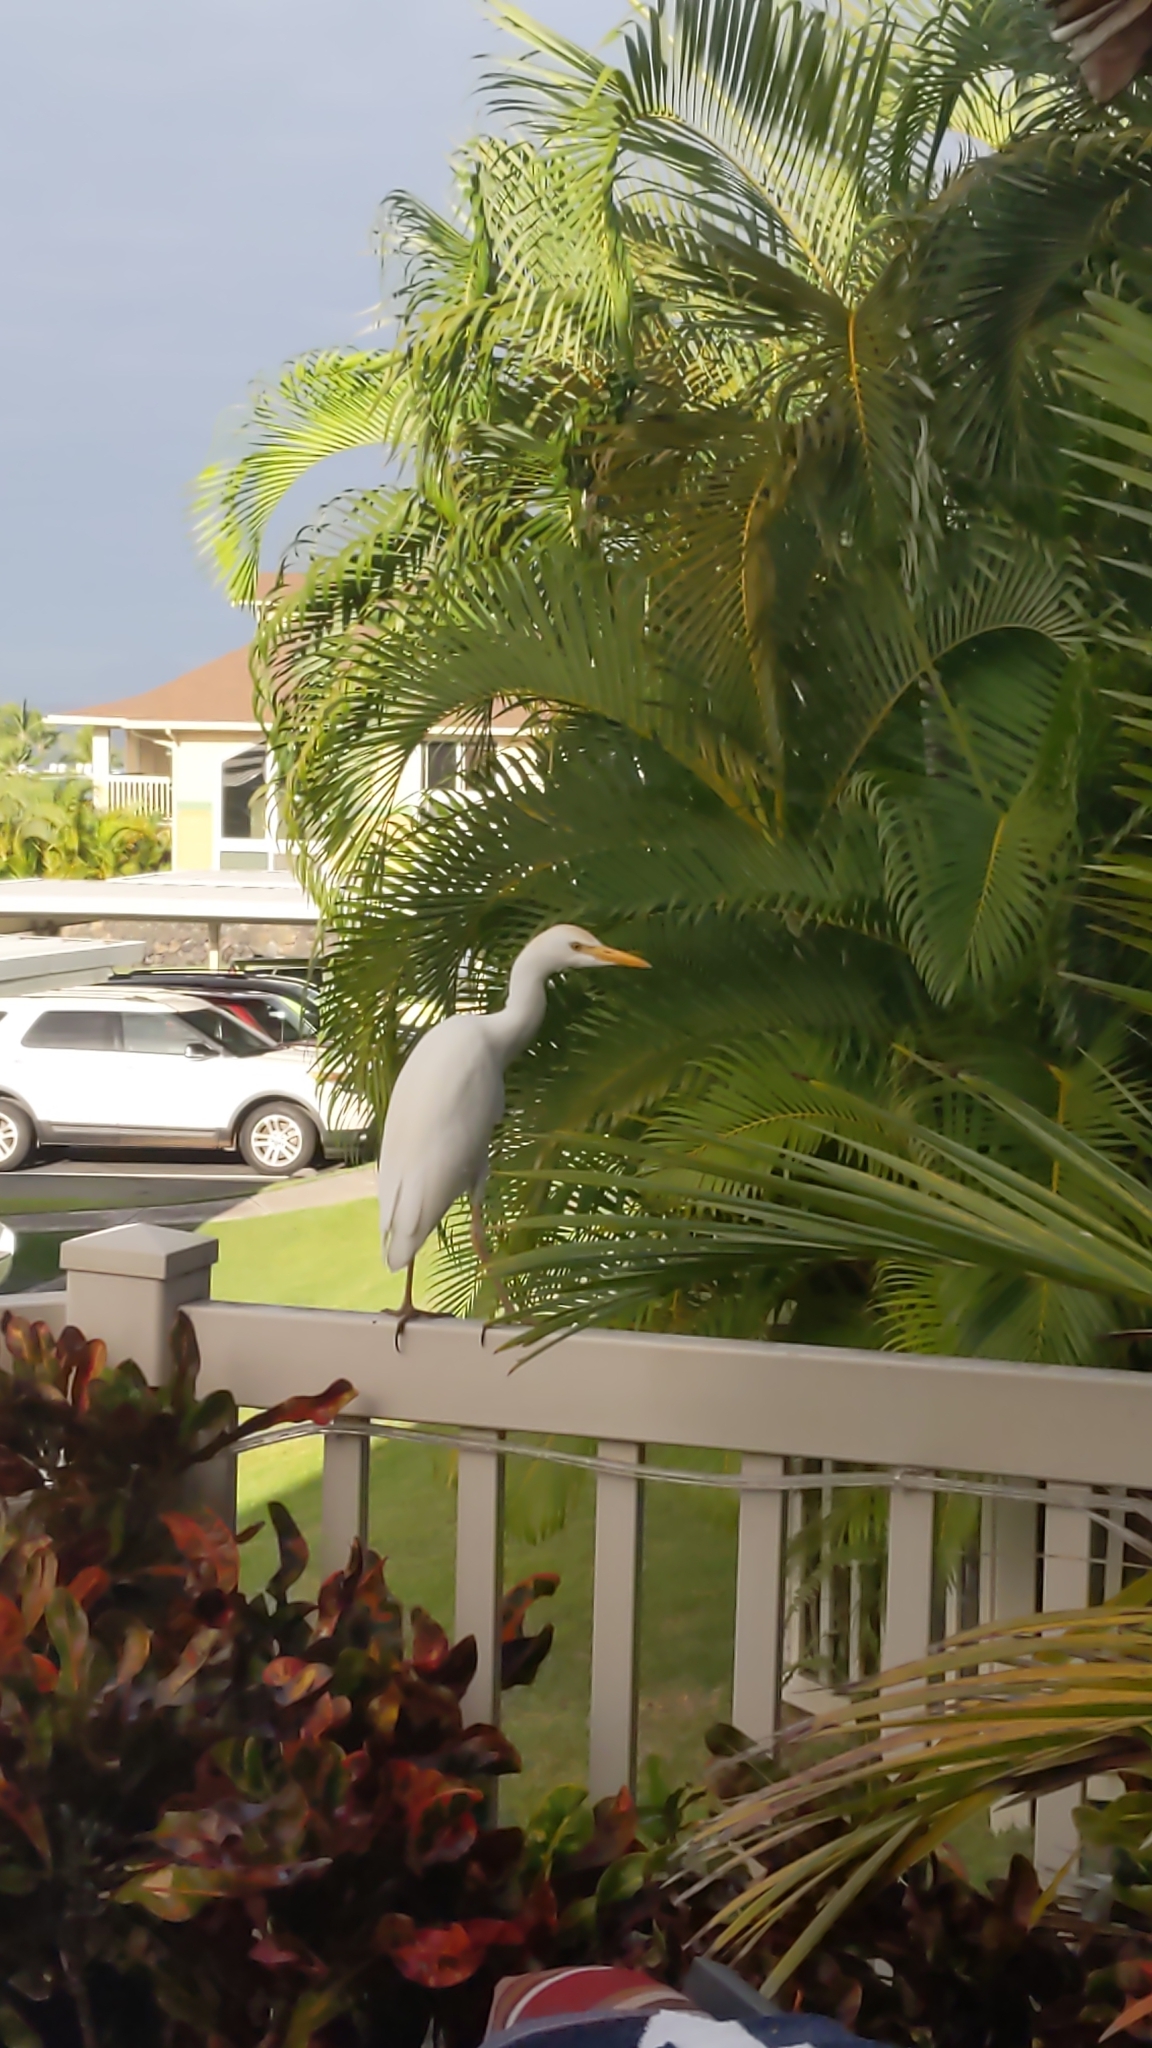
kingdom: Animalia
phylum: Chordata
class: Aves
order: Pelecaniformes
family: Ardeidae
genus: Bubulcus
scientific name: Bubulcus ibis
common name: Cattle egret
